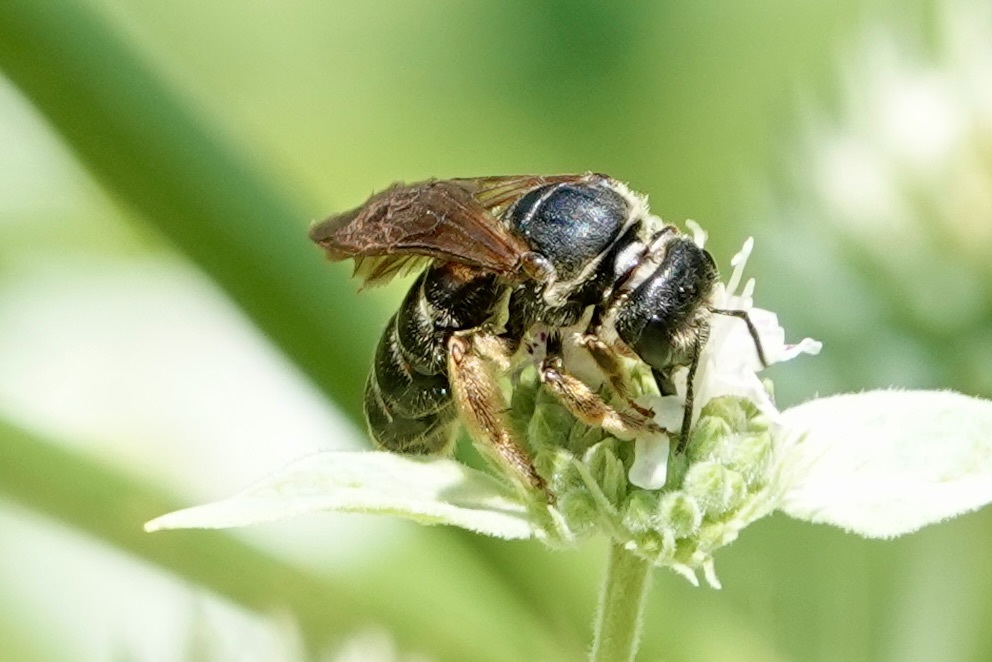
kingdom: Animalia
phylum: Arthropoda
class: Insecta
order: Hymenoptera
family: Halictidae
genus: Halictus
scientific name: Halictus parallelus
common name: Parallel-striped sweat bee
